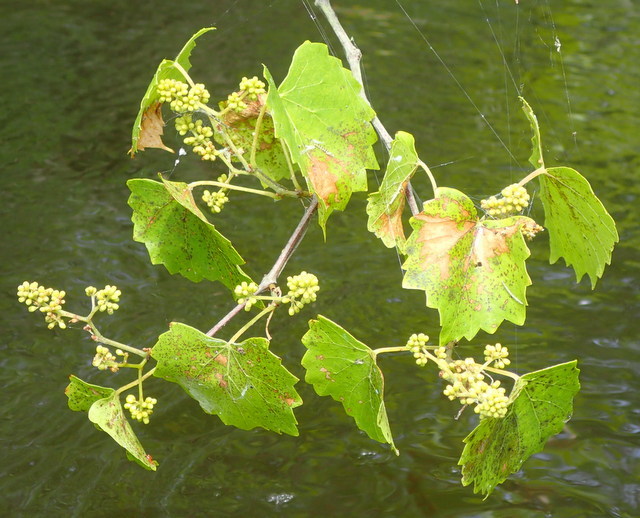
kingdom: Plantae
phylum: Tracheophyta
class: Magnoliopsida
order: Vitales
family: Vitaceae
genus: Vitis
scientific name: Vitis rotundifolia
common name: Muscadine grape
